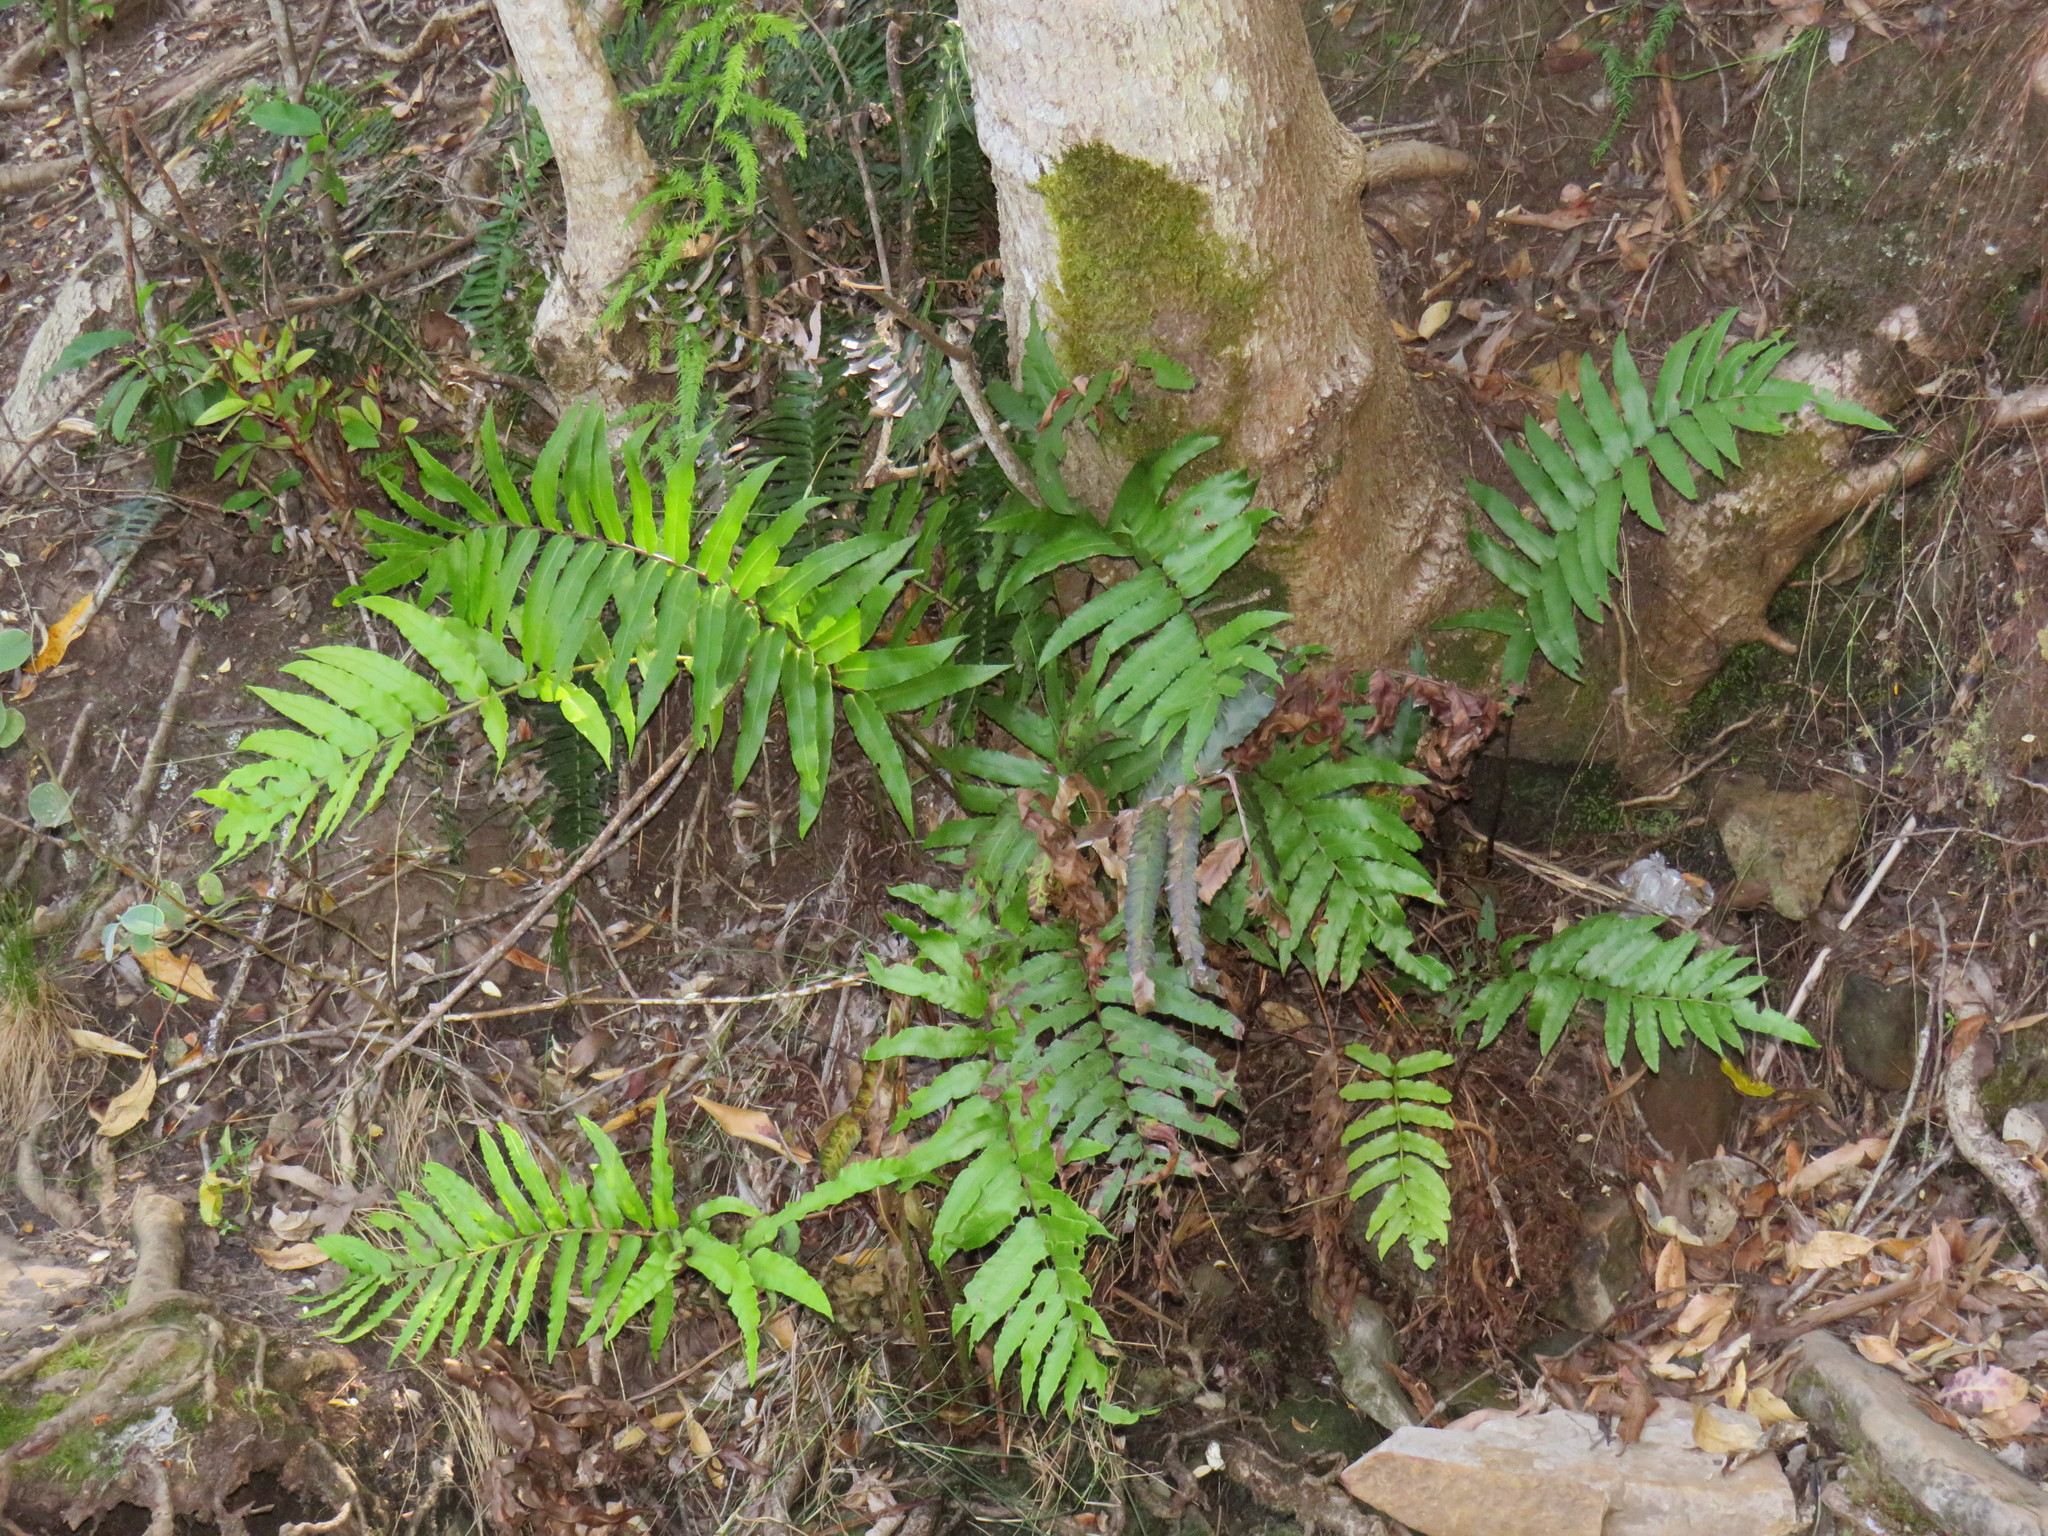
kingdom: Plantae
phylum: Tracheophyta
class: Polypodiopsida
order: Polypodiales
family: Blechnaceae
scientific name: Blechnaceae
